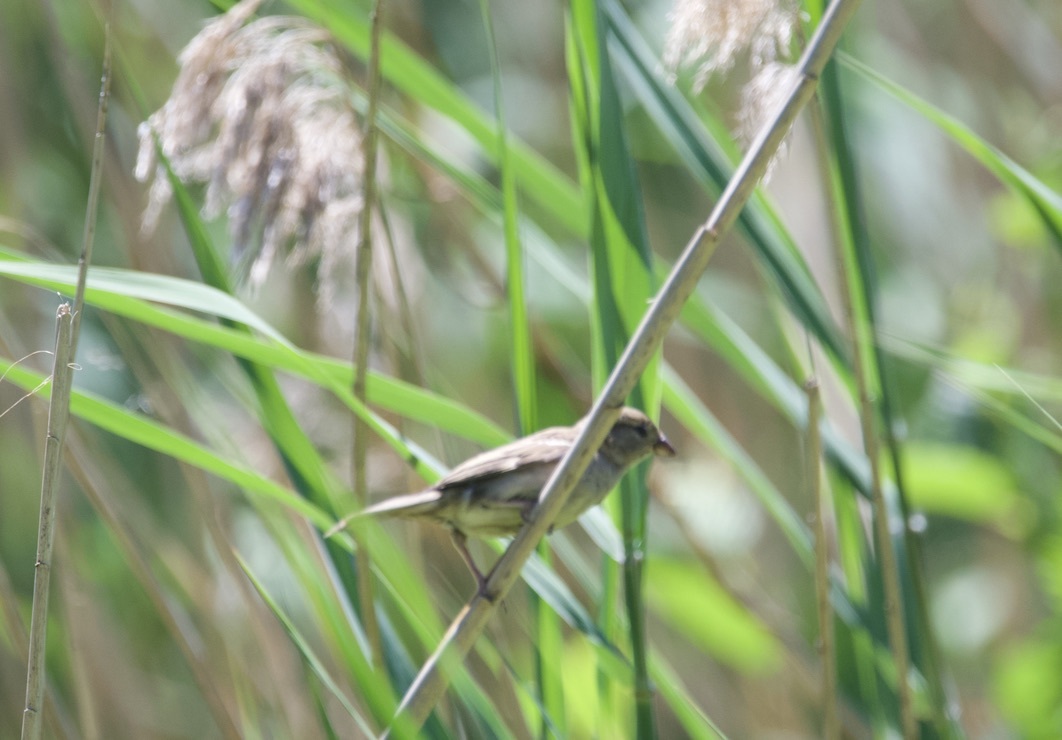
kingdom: Animalia
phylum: Chordata
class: Aves
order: Passeriformes
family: Passeridae
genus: Passer
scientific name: Passer domesticus
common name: House sparrow
